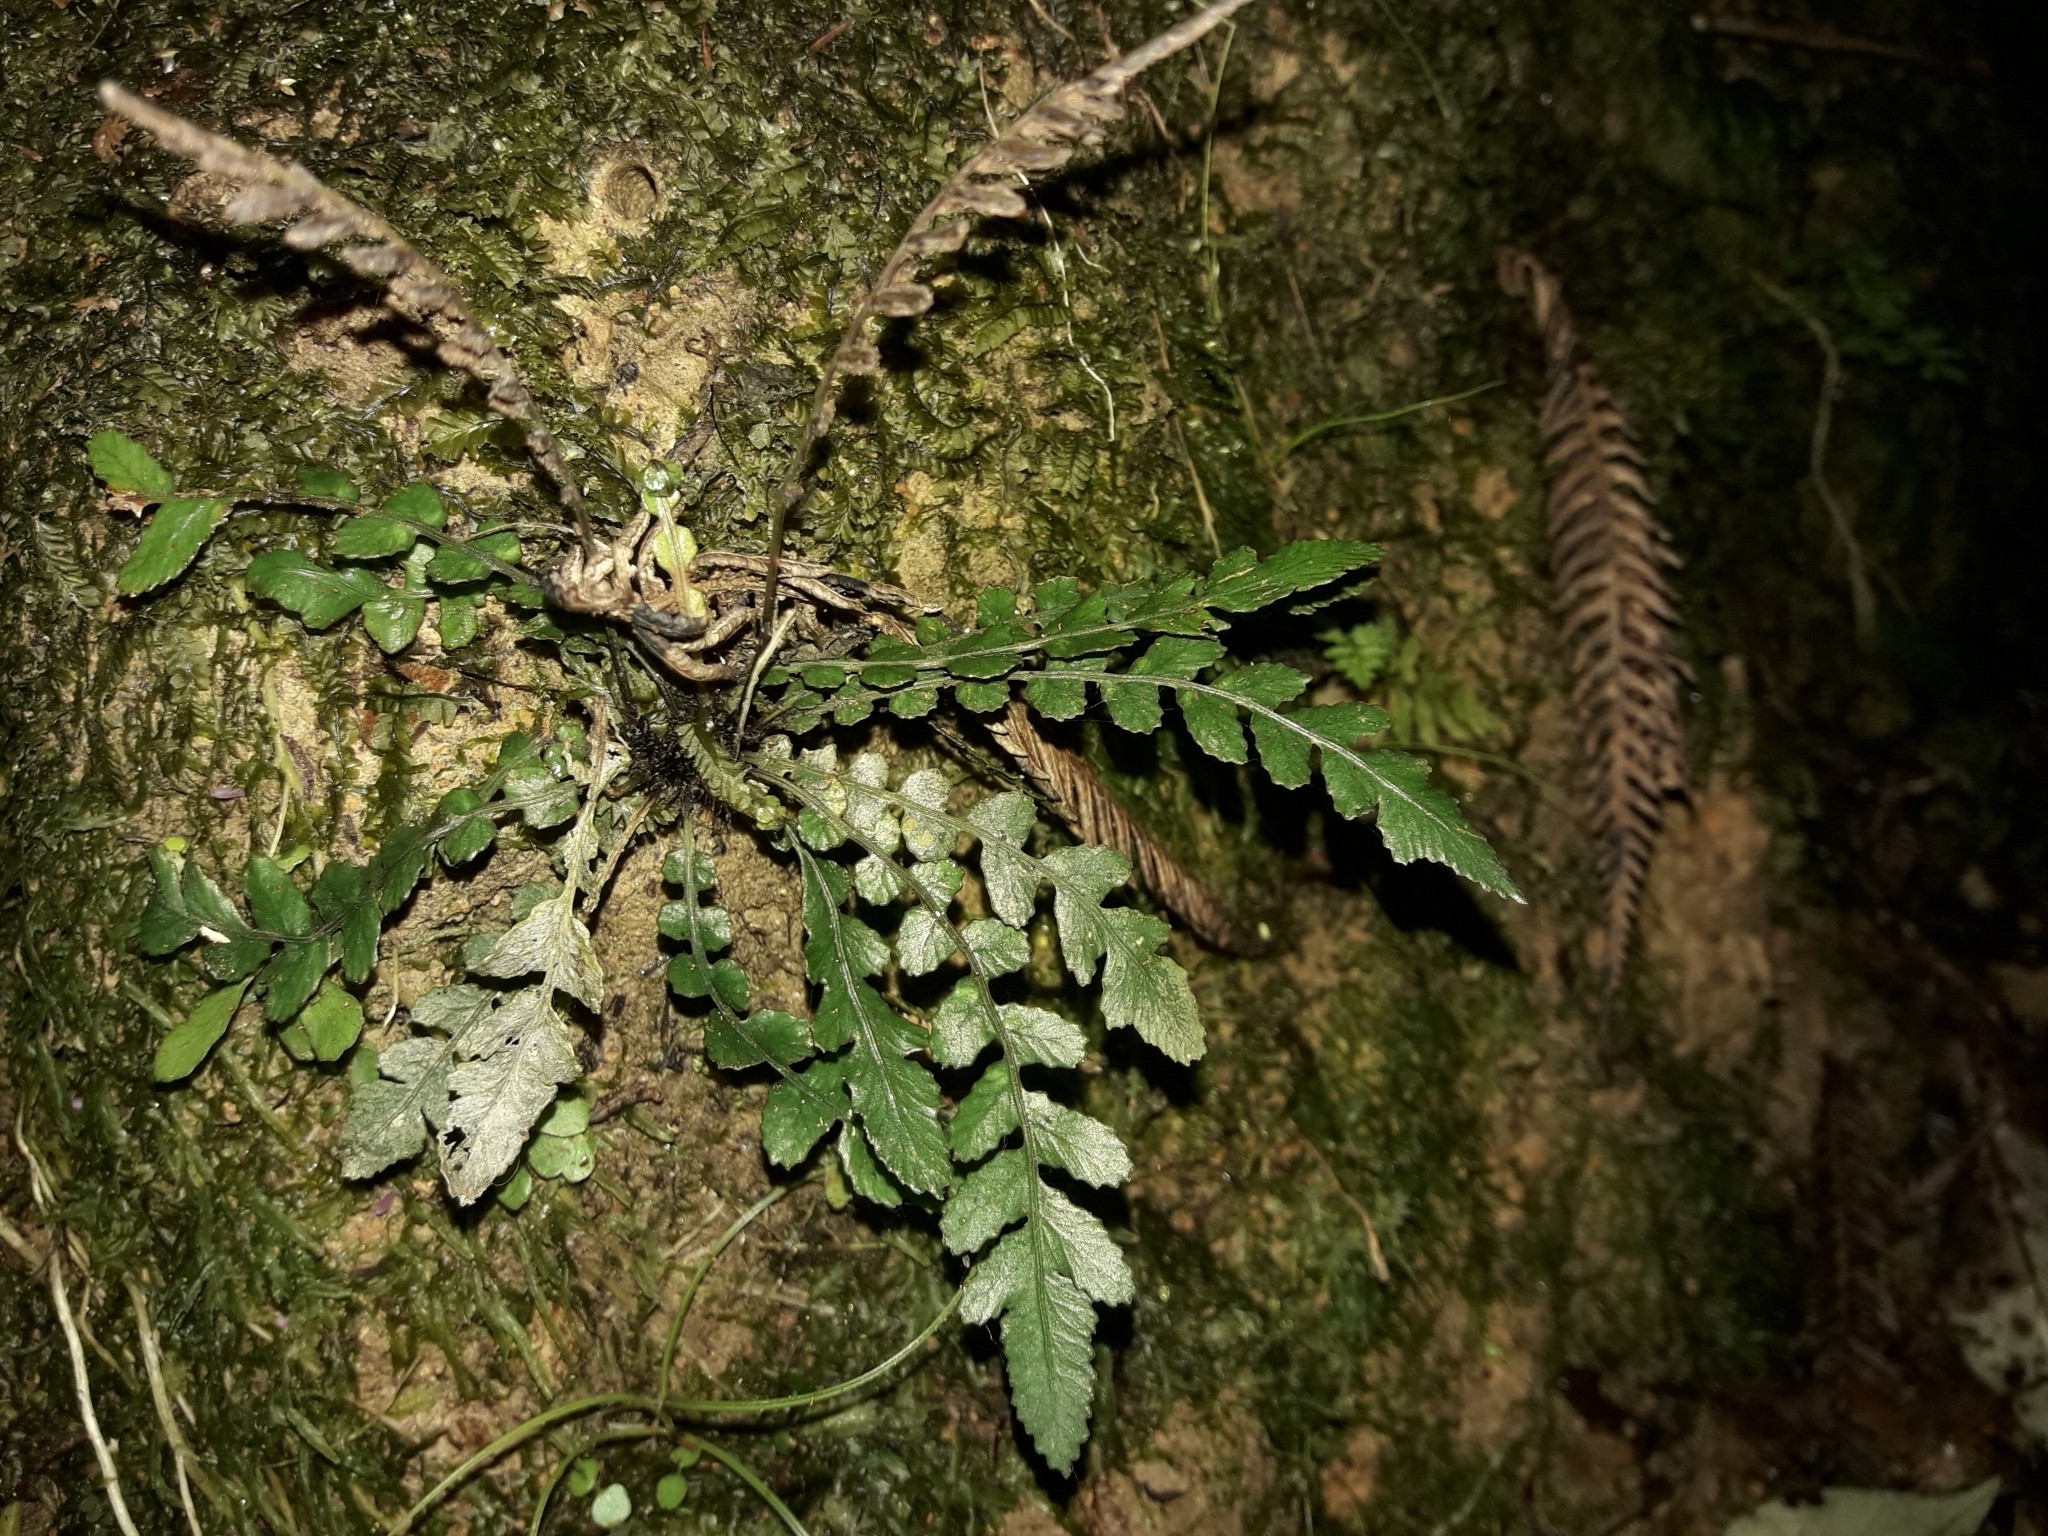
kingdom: Plantae
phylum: Tracheophyta
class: Polypodiopsida
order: Polypodiales
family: Blechnaceae
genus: Austroblechnum
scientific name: Austroblechnum membranaceum
